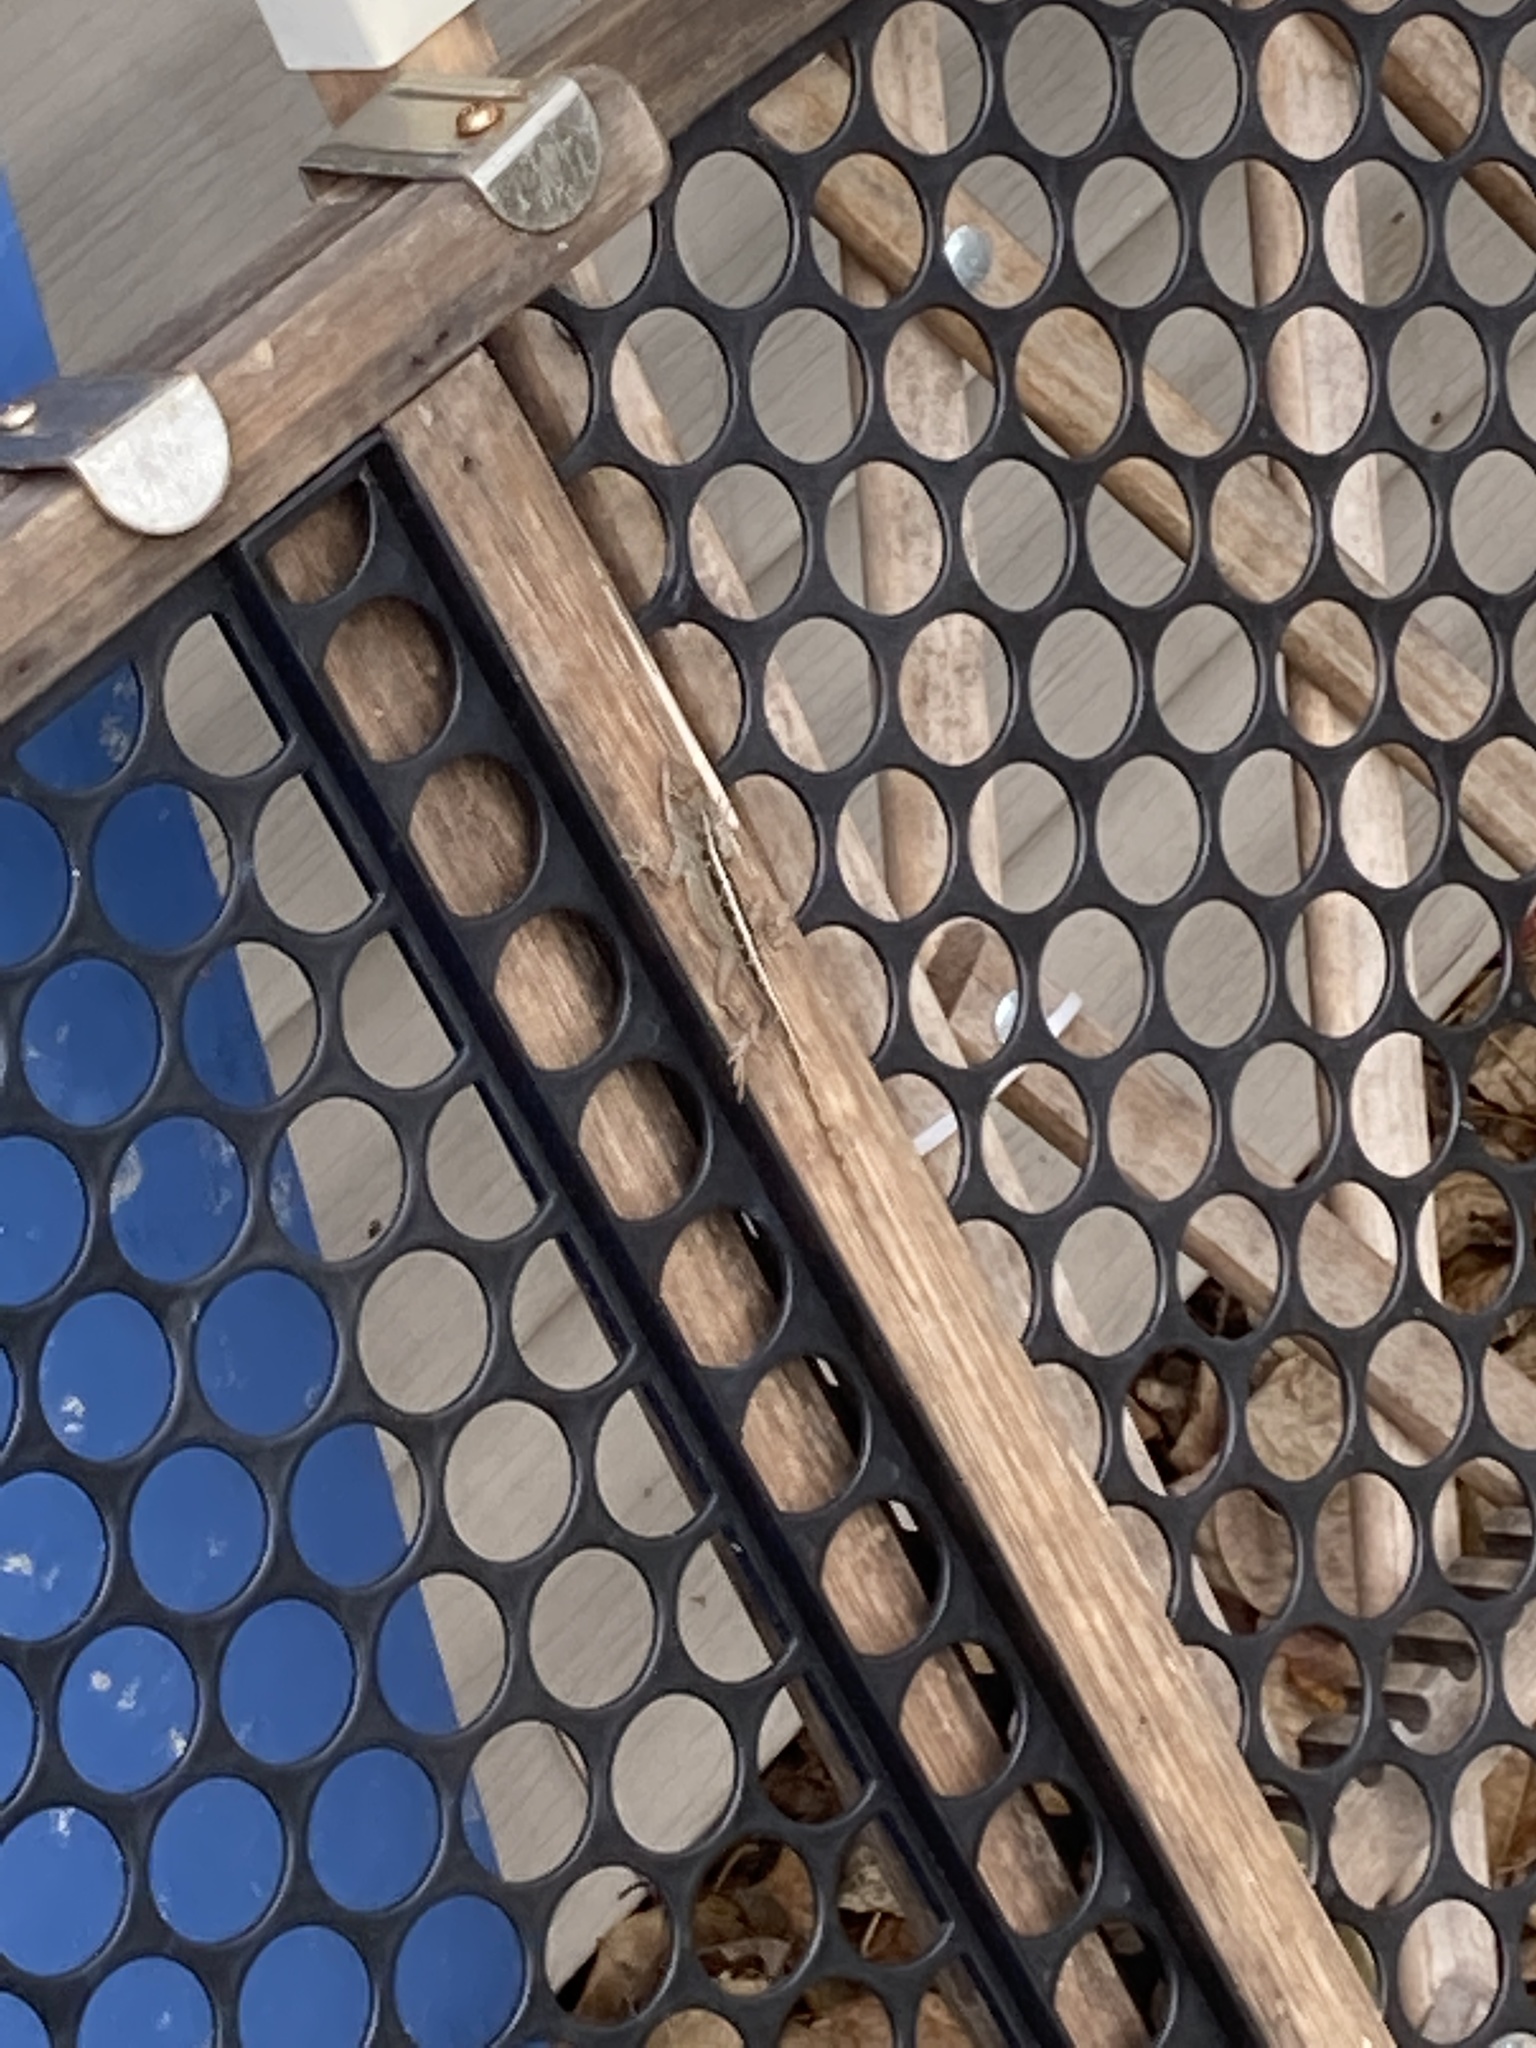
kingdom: Animalia
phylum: Chordata
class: Squamata
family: Dactyloidae
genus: Anolis
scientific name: Anolis sagrei
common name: Brown anole
